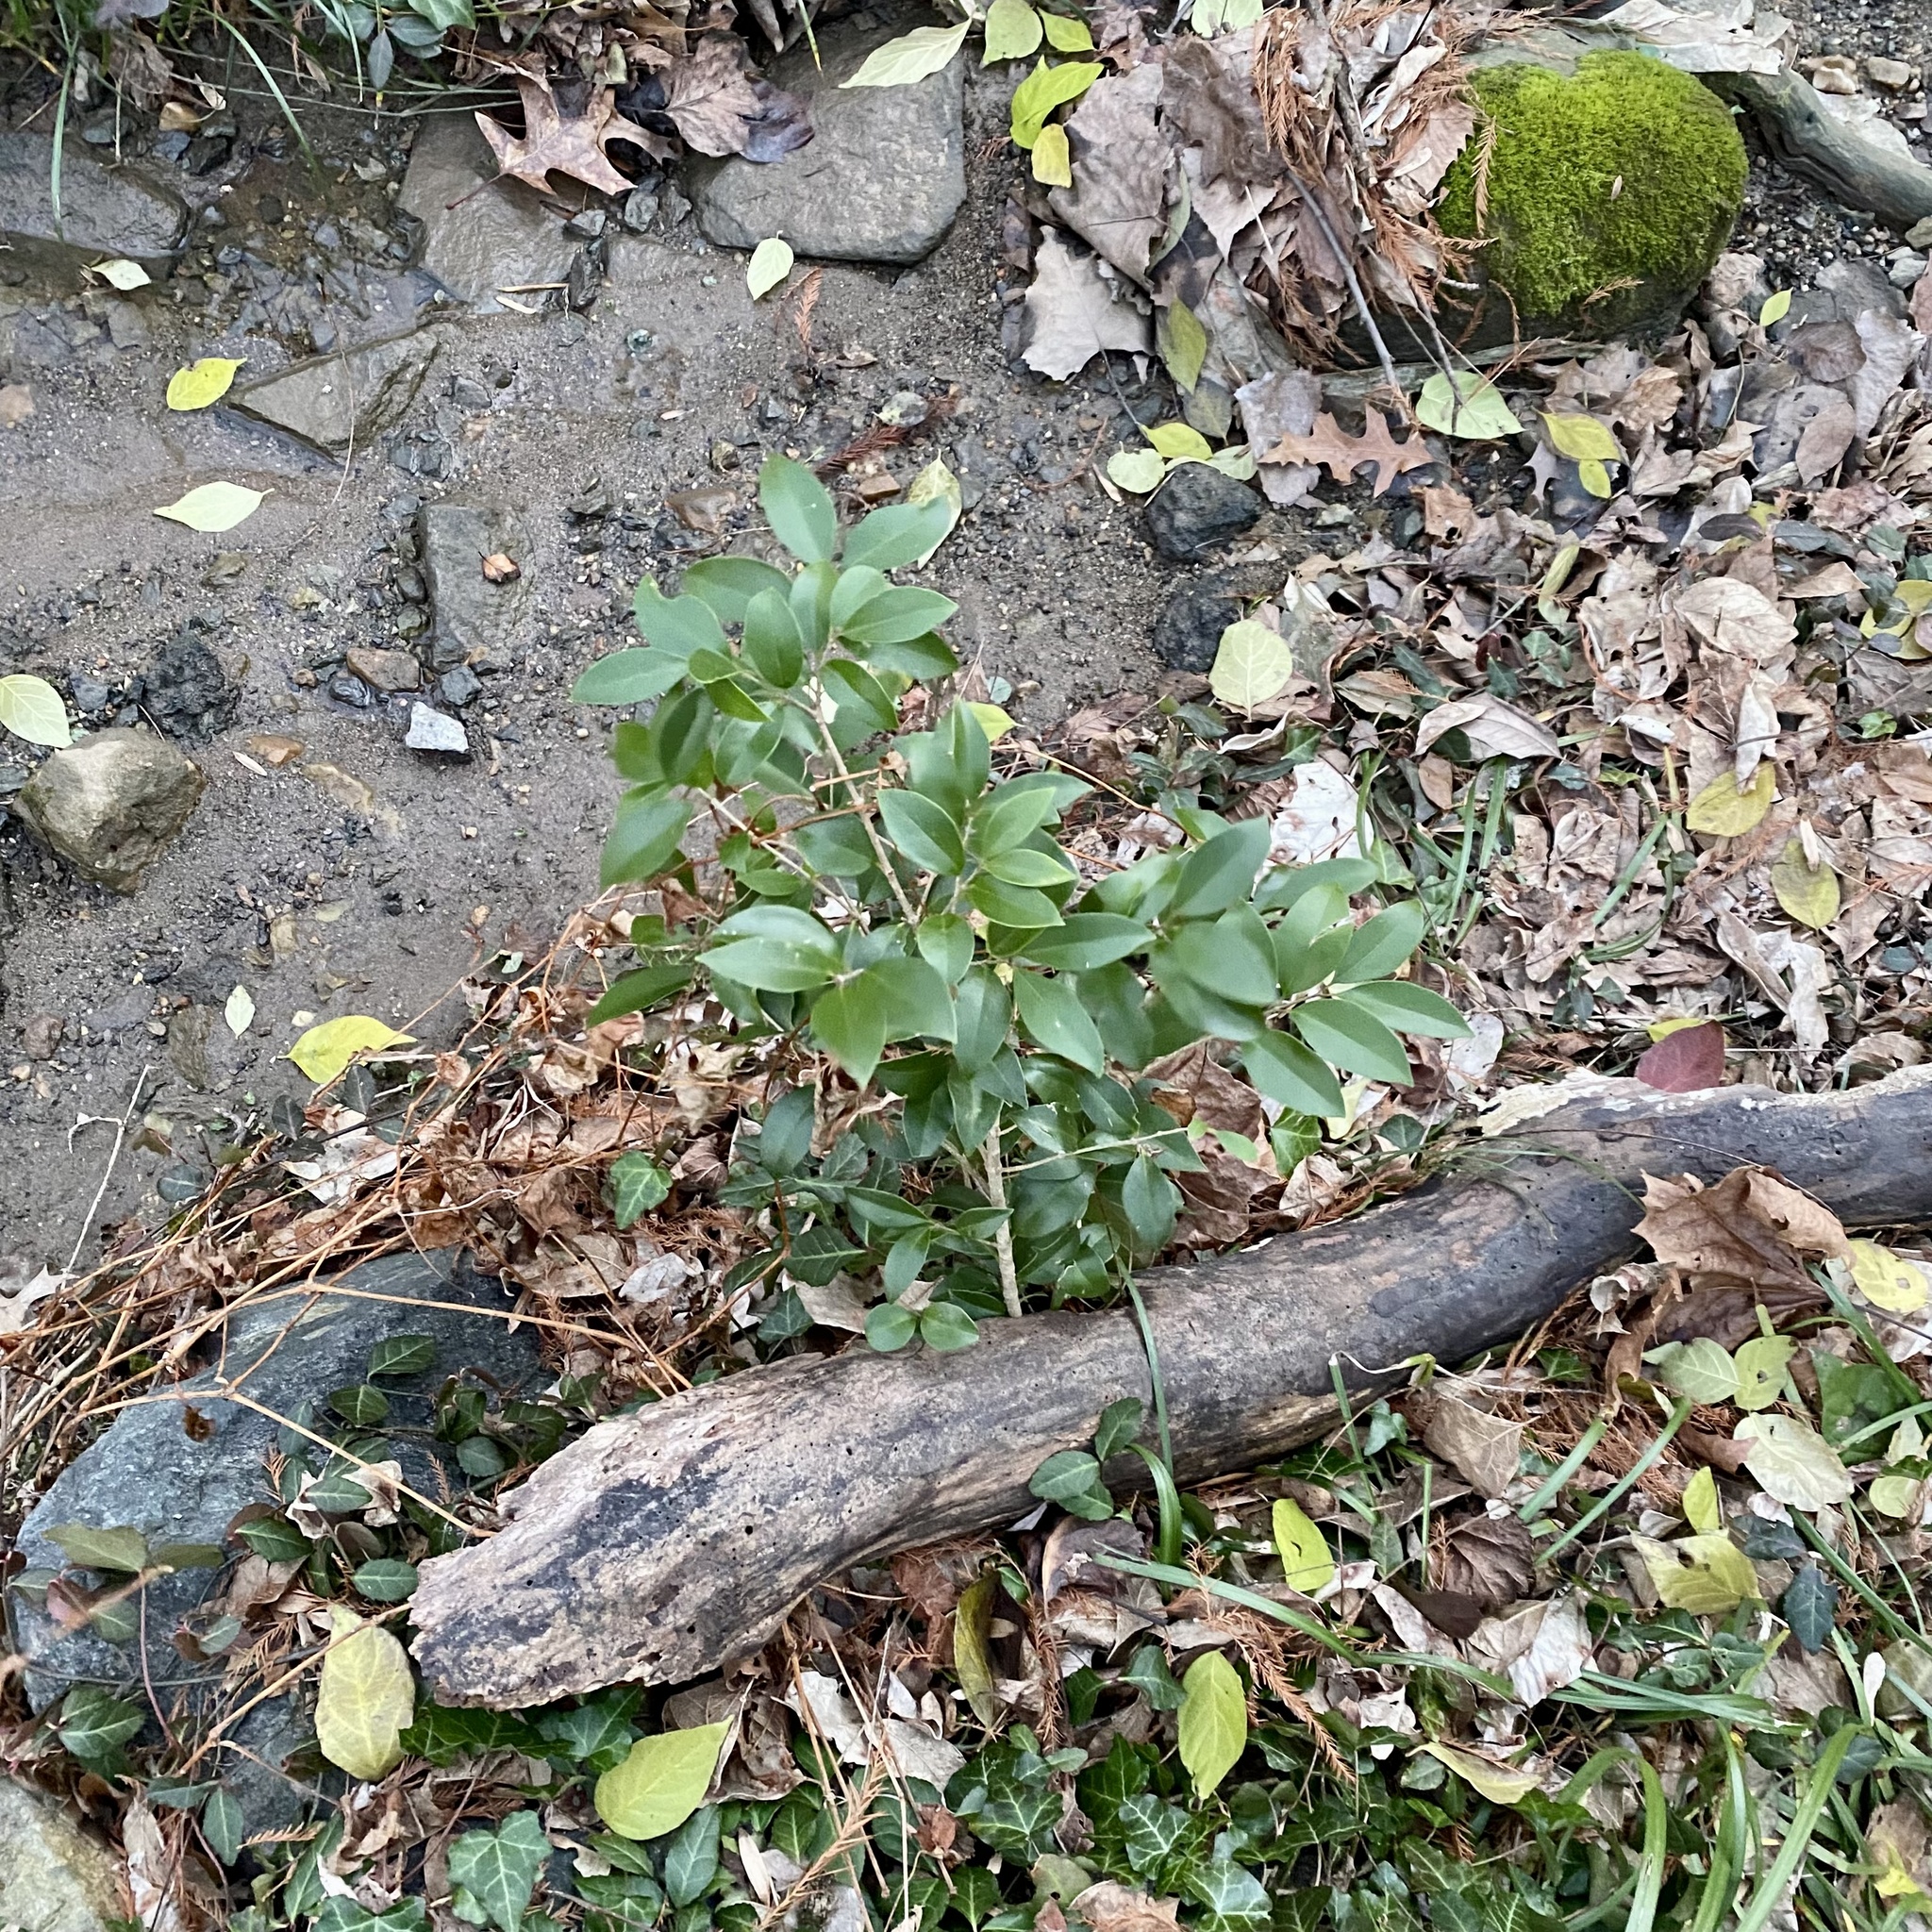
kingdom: Plantae
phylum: Tracheophyta
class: Magnoliopsida
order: Lamiales
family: Oleaceae
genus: Ligustrum
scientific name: Ligustrum lucidum
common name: Glossy privet
